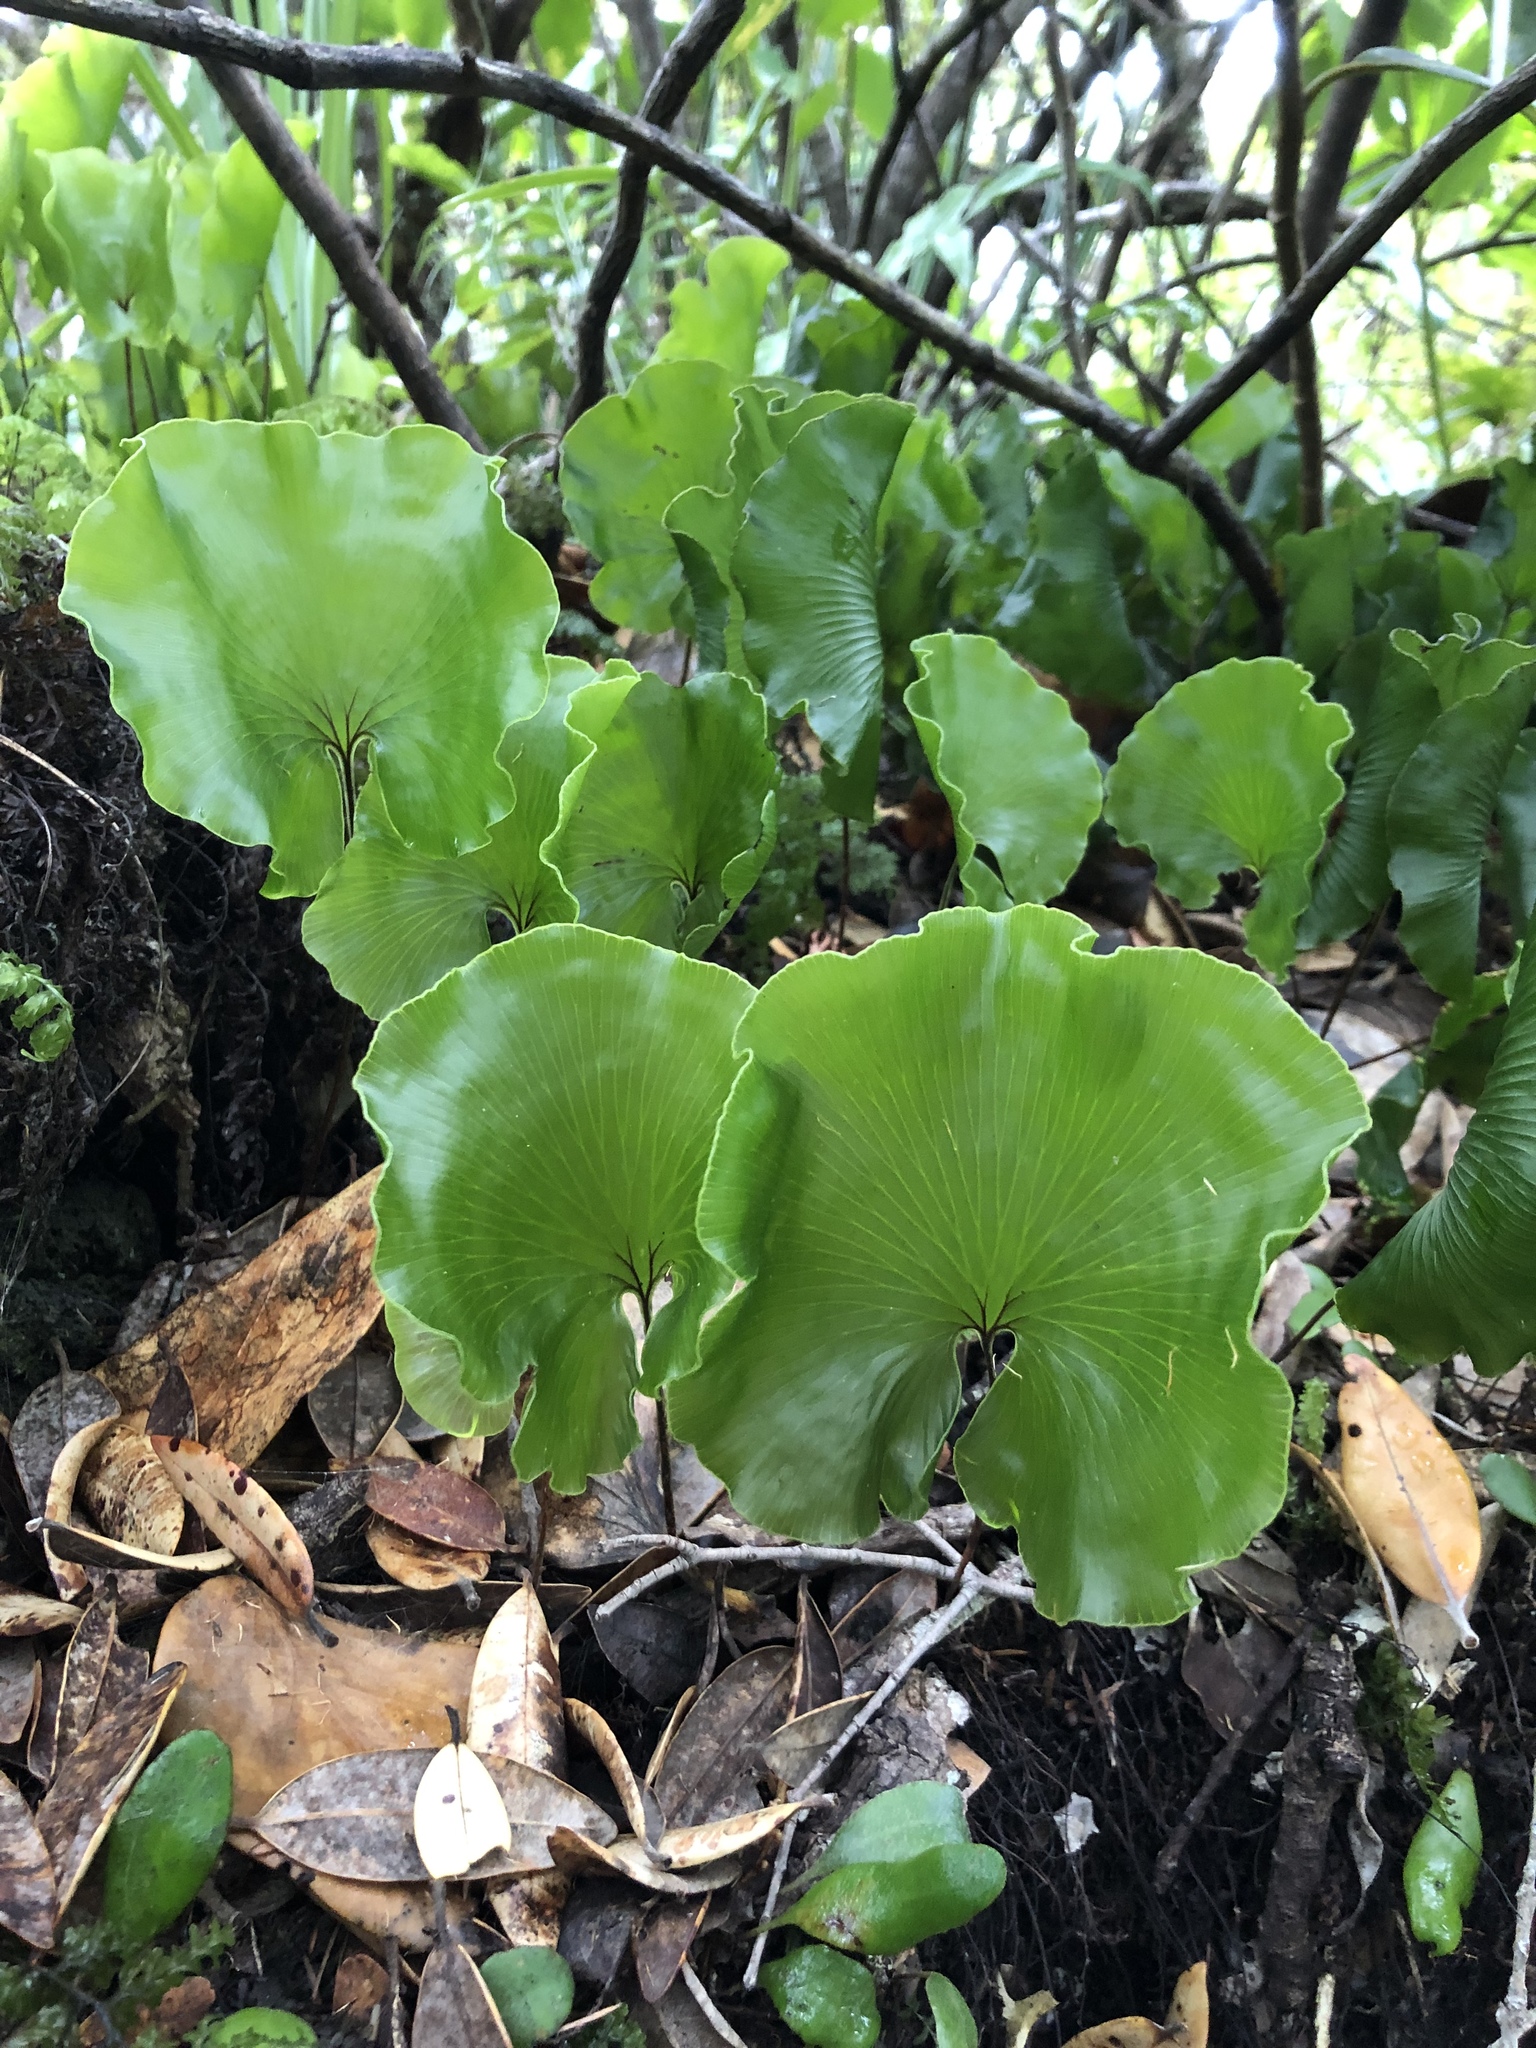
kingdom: Plantae
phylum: Tracheophyta
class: Polypodiopsida
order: Hymenophyllales
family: Hymenophyllaceae
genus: Hymenophyllum
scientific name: Hymenophyllum nephrophyllum
